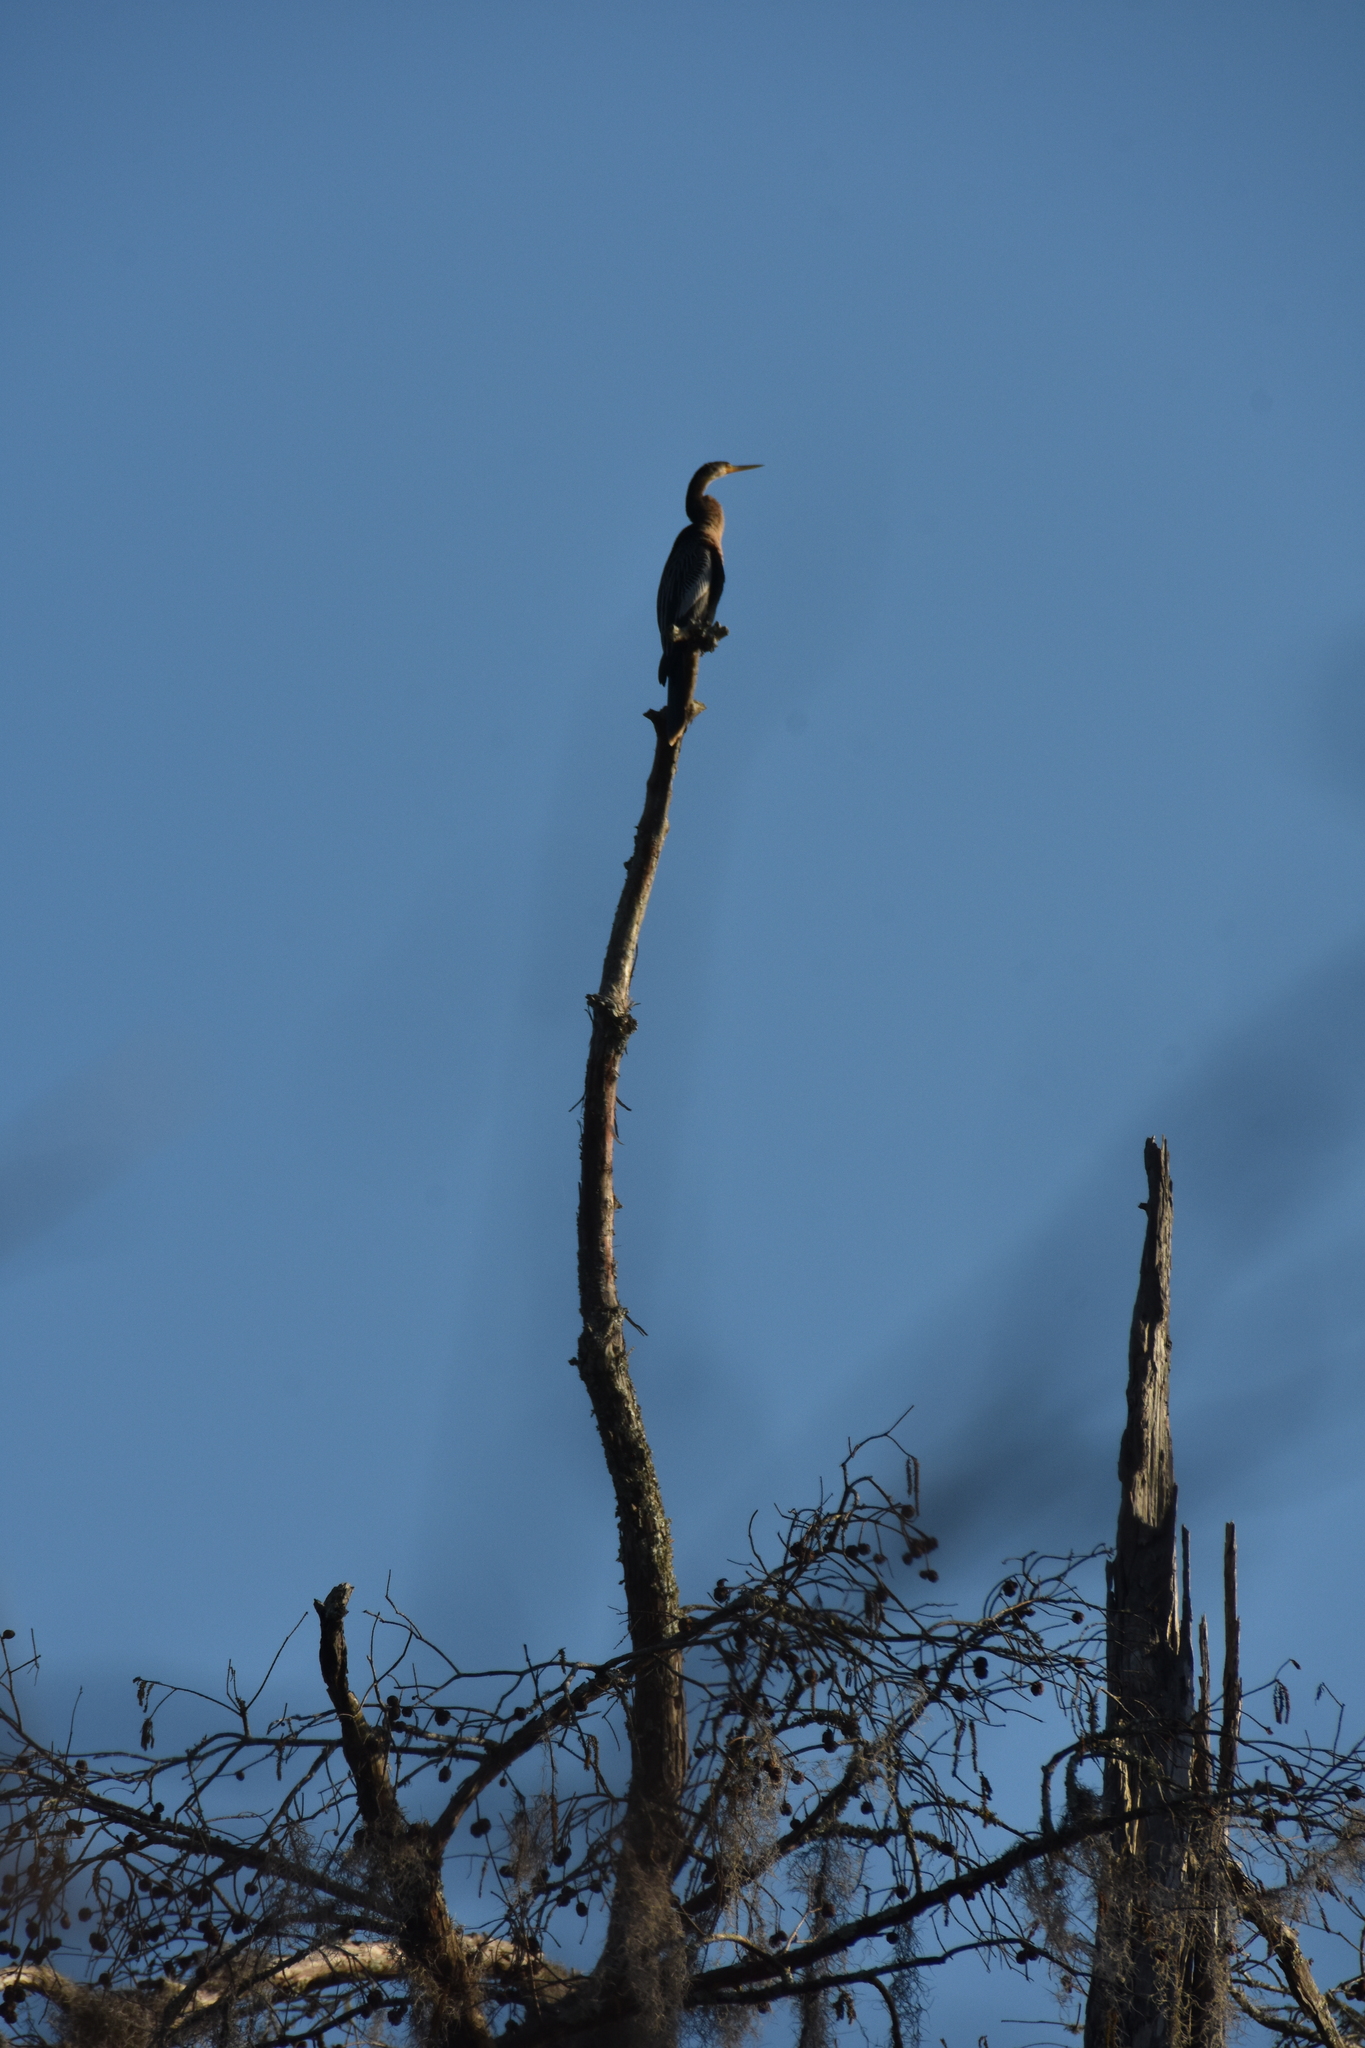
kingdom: Animalia
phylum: Chordata
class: Aves
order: Suliformes
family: Anhingidae
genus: Anhinga
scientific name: Anhinga anhinga
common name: Anhinga
